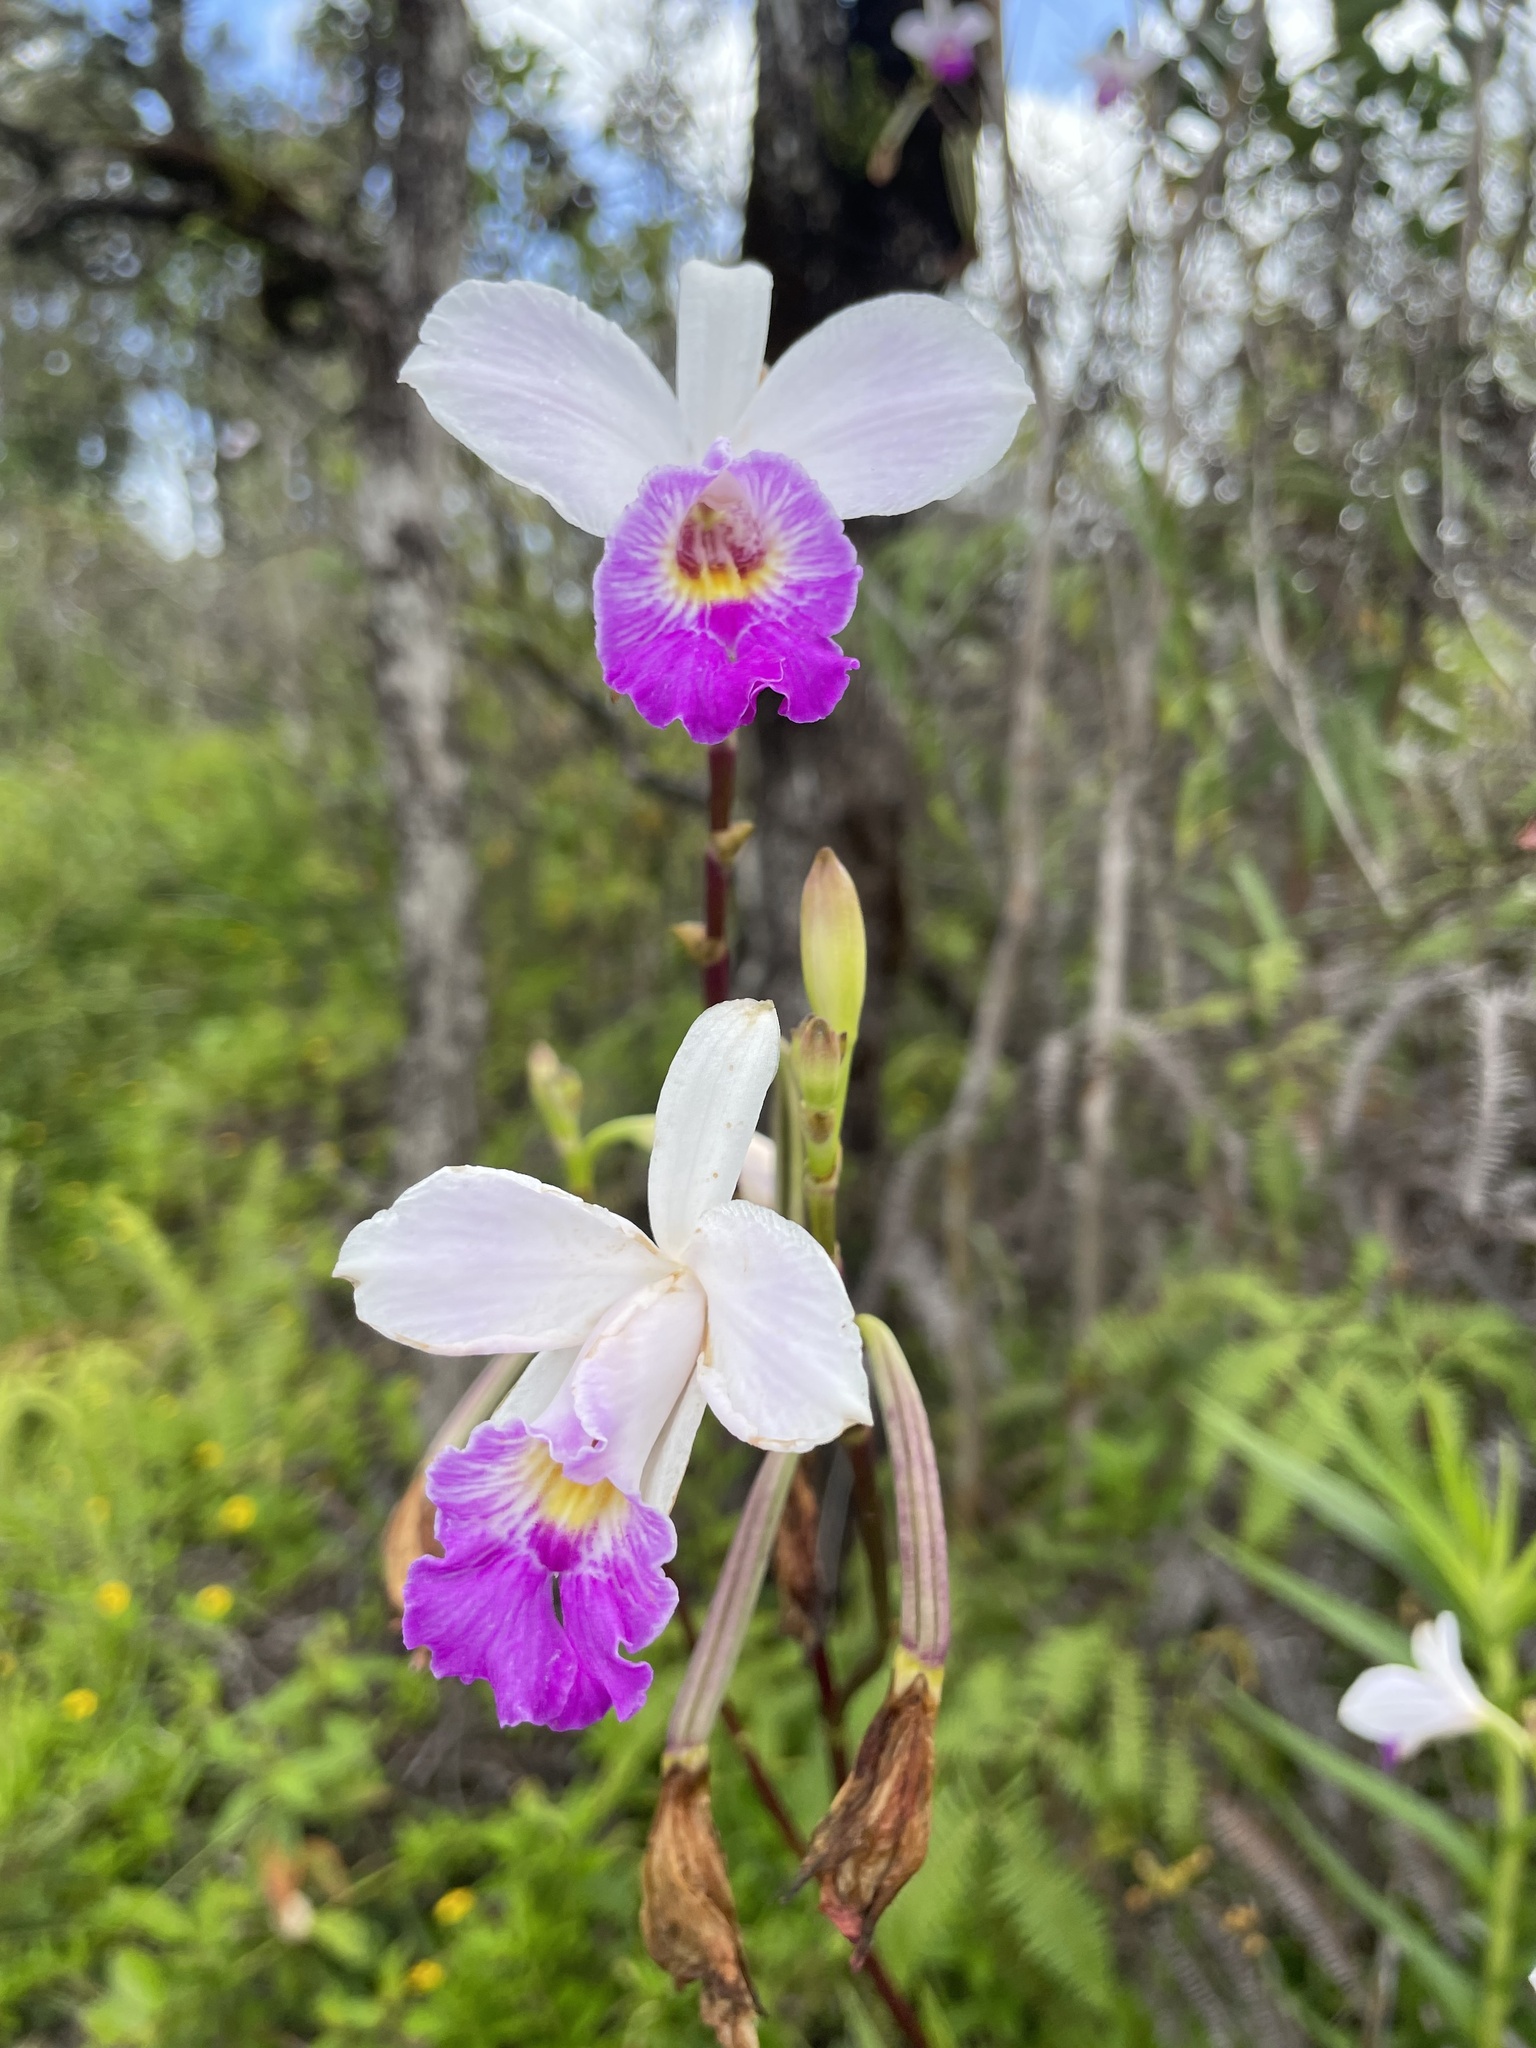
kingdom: Plantae
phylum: Tracheophyta
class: Liliopsida
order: Asparagales
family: Orchidaceae
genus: Arundina
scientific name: Arundina graminifolia
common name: Bamboo orchid
